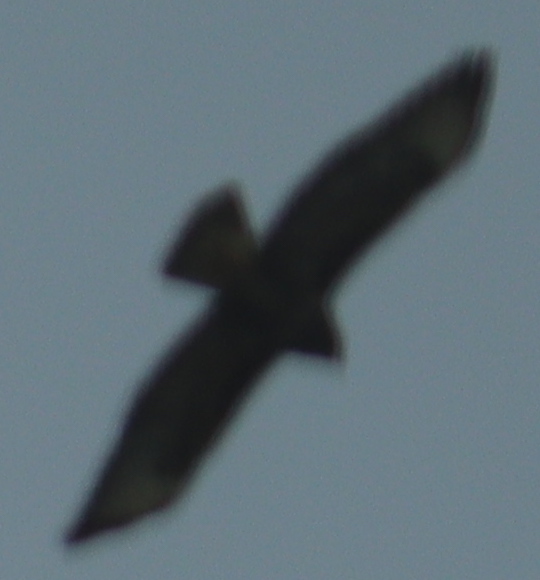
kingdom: Animalia
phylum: Chordata
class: Aves
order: Accipitriformes
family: Accipitridae
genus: Buteo
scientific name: Buteo buteo
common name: Common buzzard
